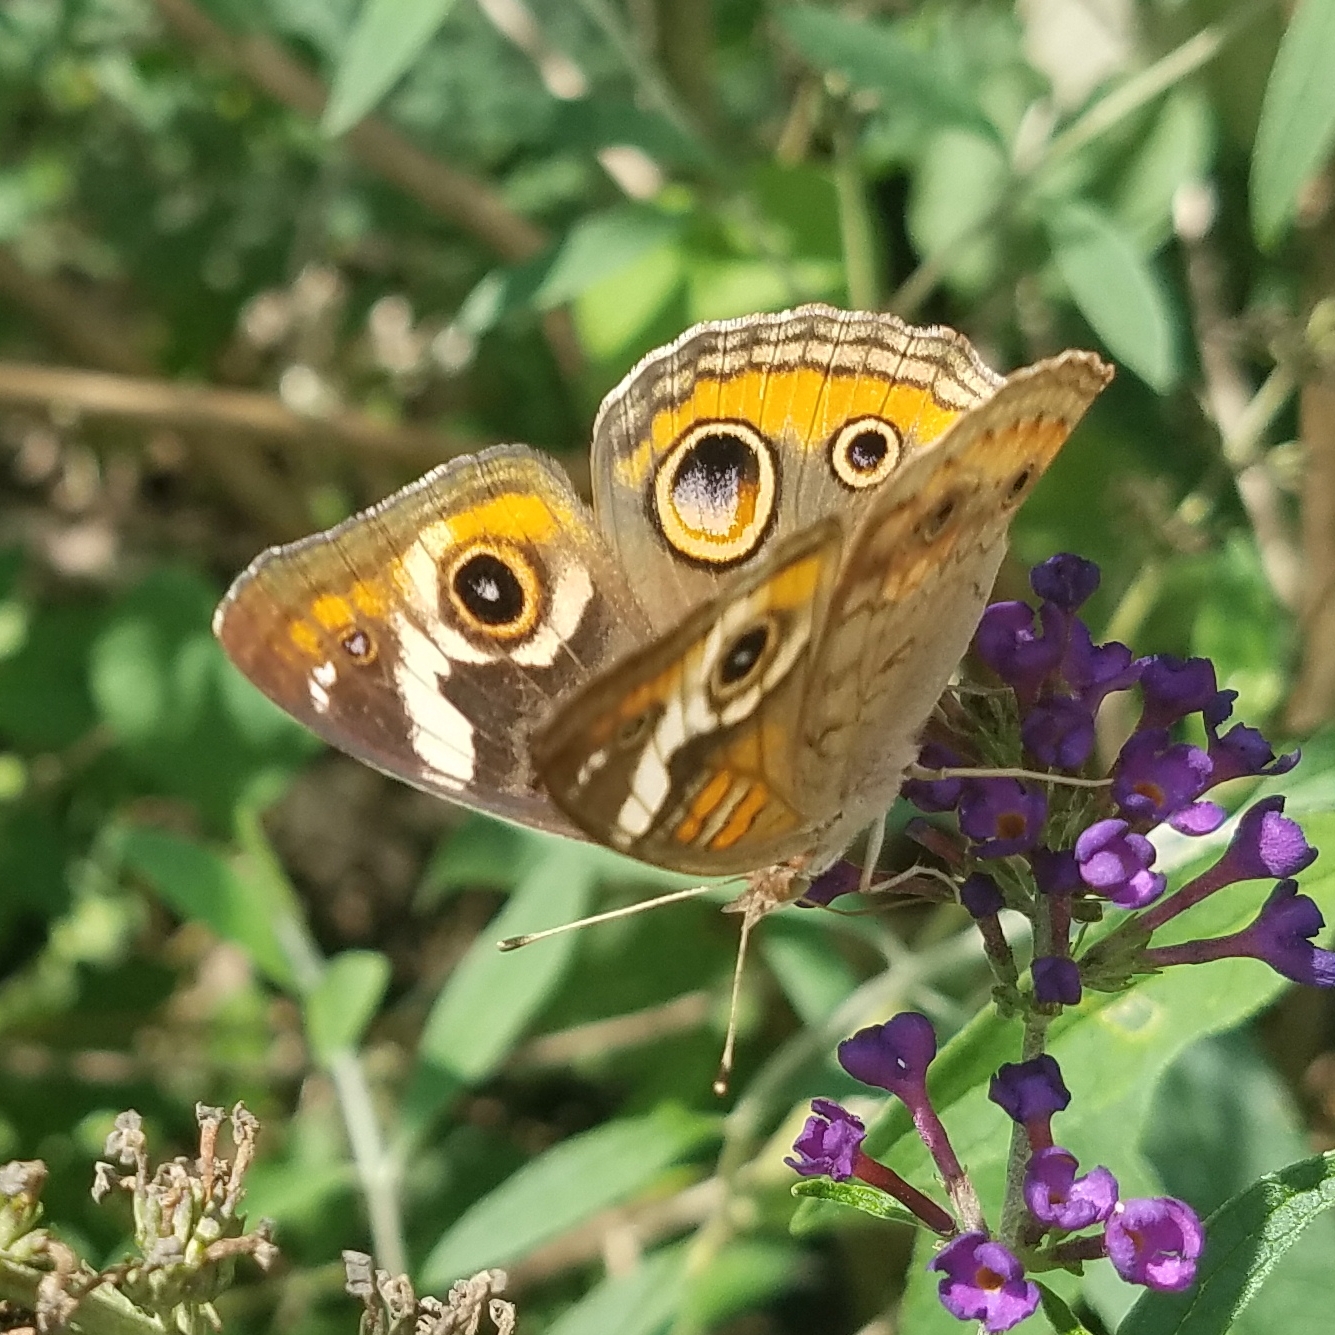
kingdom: Animalia
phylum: Arthropoda
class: Insecta
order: Lepidoptera
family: Nymphalidae
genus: Junonia
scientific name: Junonia coenia
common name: Common buckeye
